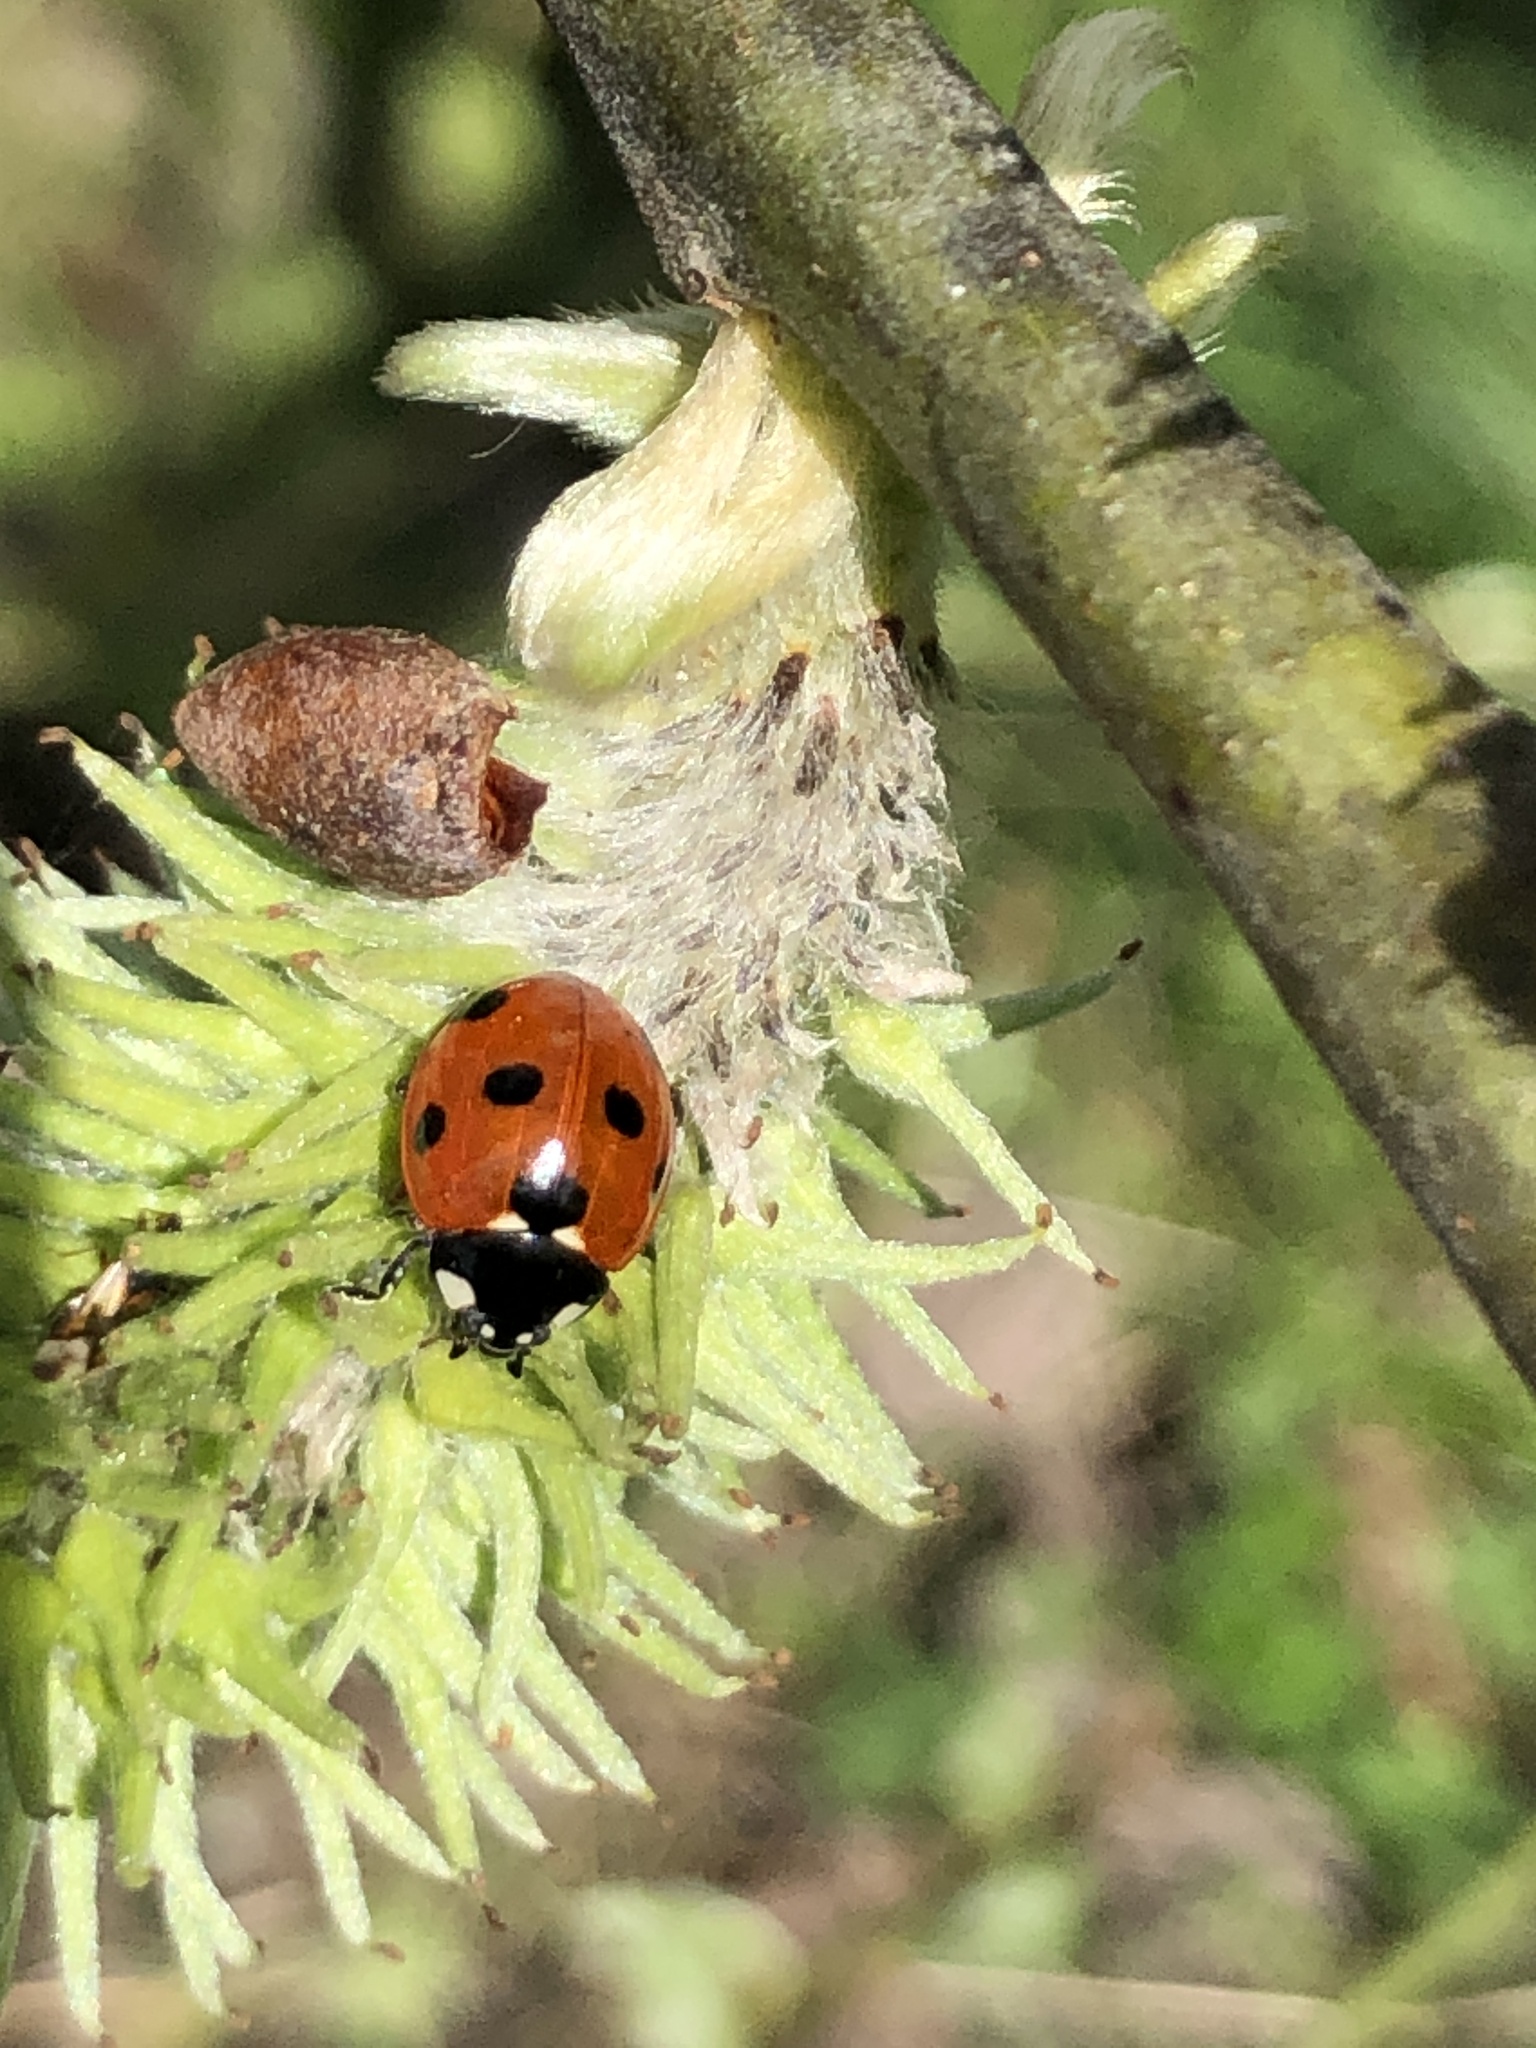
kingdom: Animalia
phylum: Arthropoda
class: Insecta
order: Coleoptera
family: Coccinellidae
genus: Coccinella
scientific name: Coccinella septempunctata
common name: Sevenspotted lady beetle
